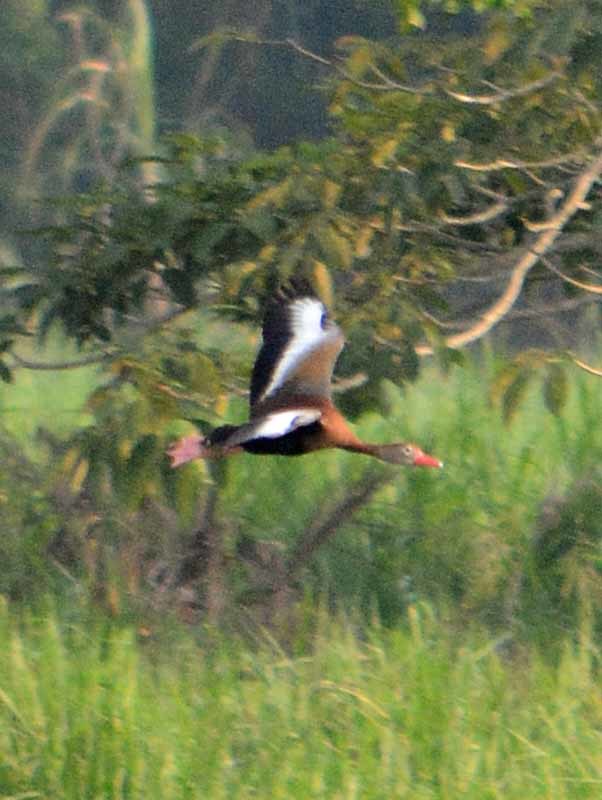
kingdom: Animalia
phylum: Chordata
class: Aves
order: Anseriformes
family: Anatidae
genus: Dendrocygna
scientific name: Dendrocygna autumnalis
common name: Black-bellied whistling duck
